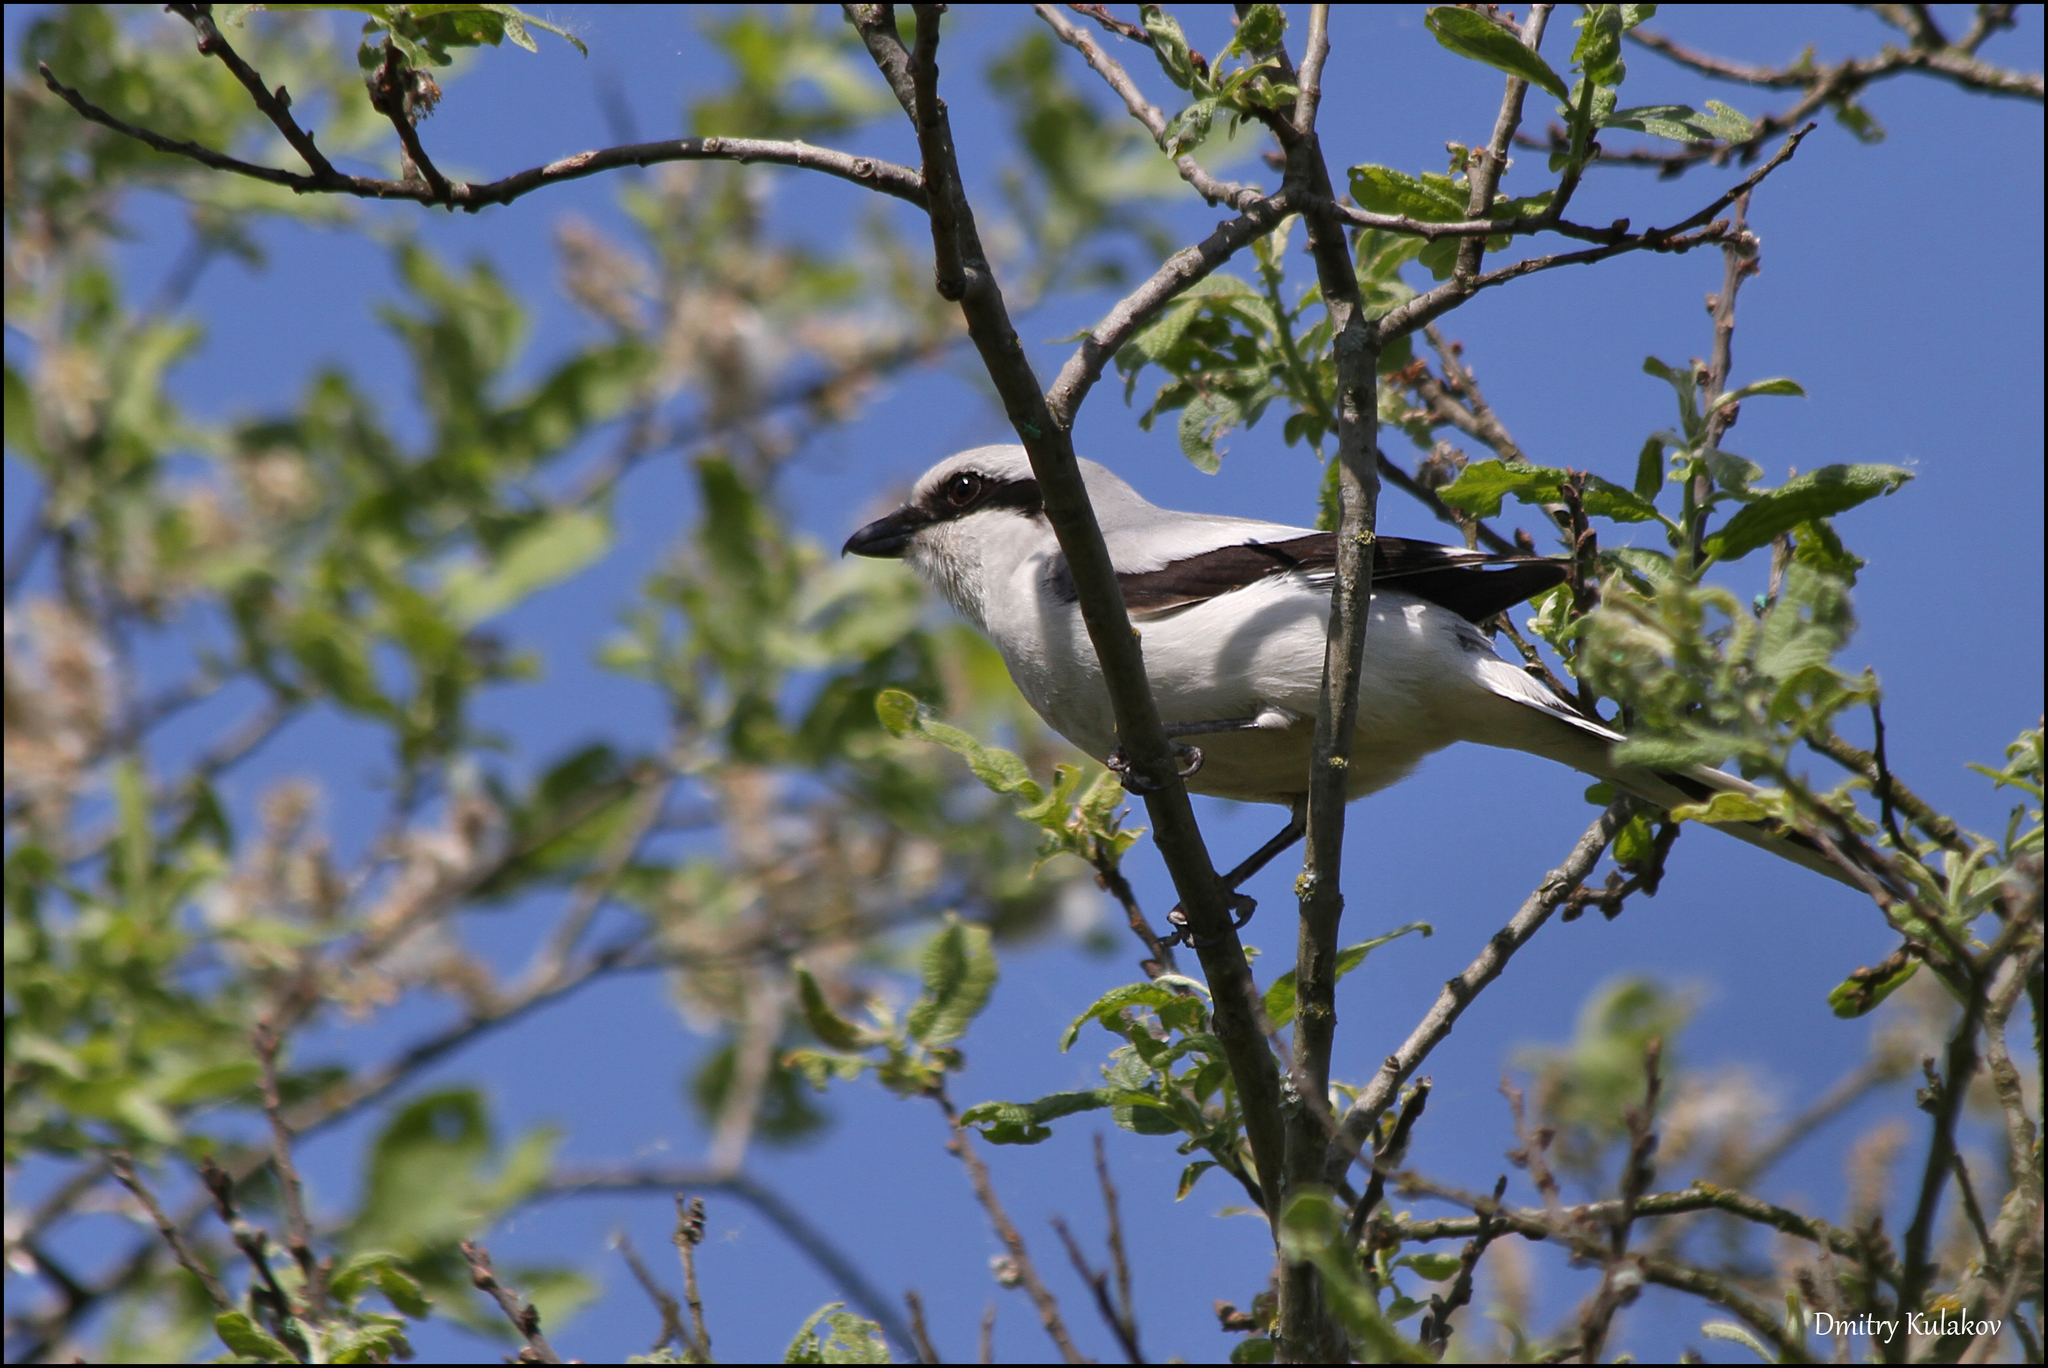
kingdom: Animalia
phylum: Chordata
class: Aves
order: Passeriformes
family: Laniidae
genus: Lanius
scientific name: Lanius excubitor
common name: Great grey shrike
